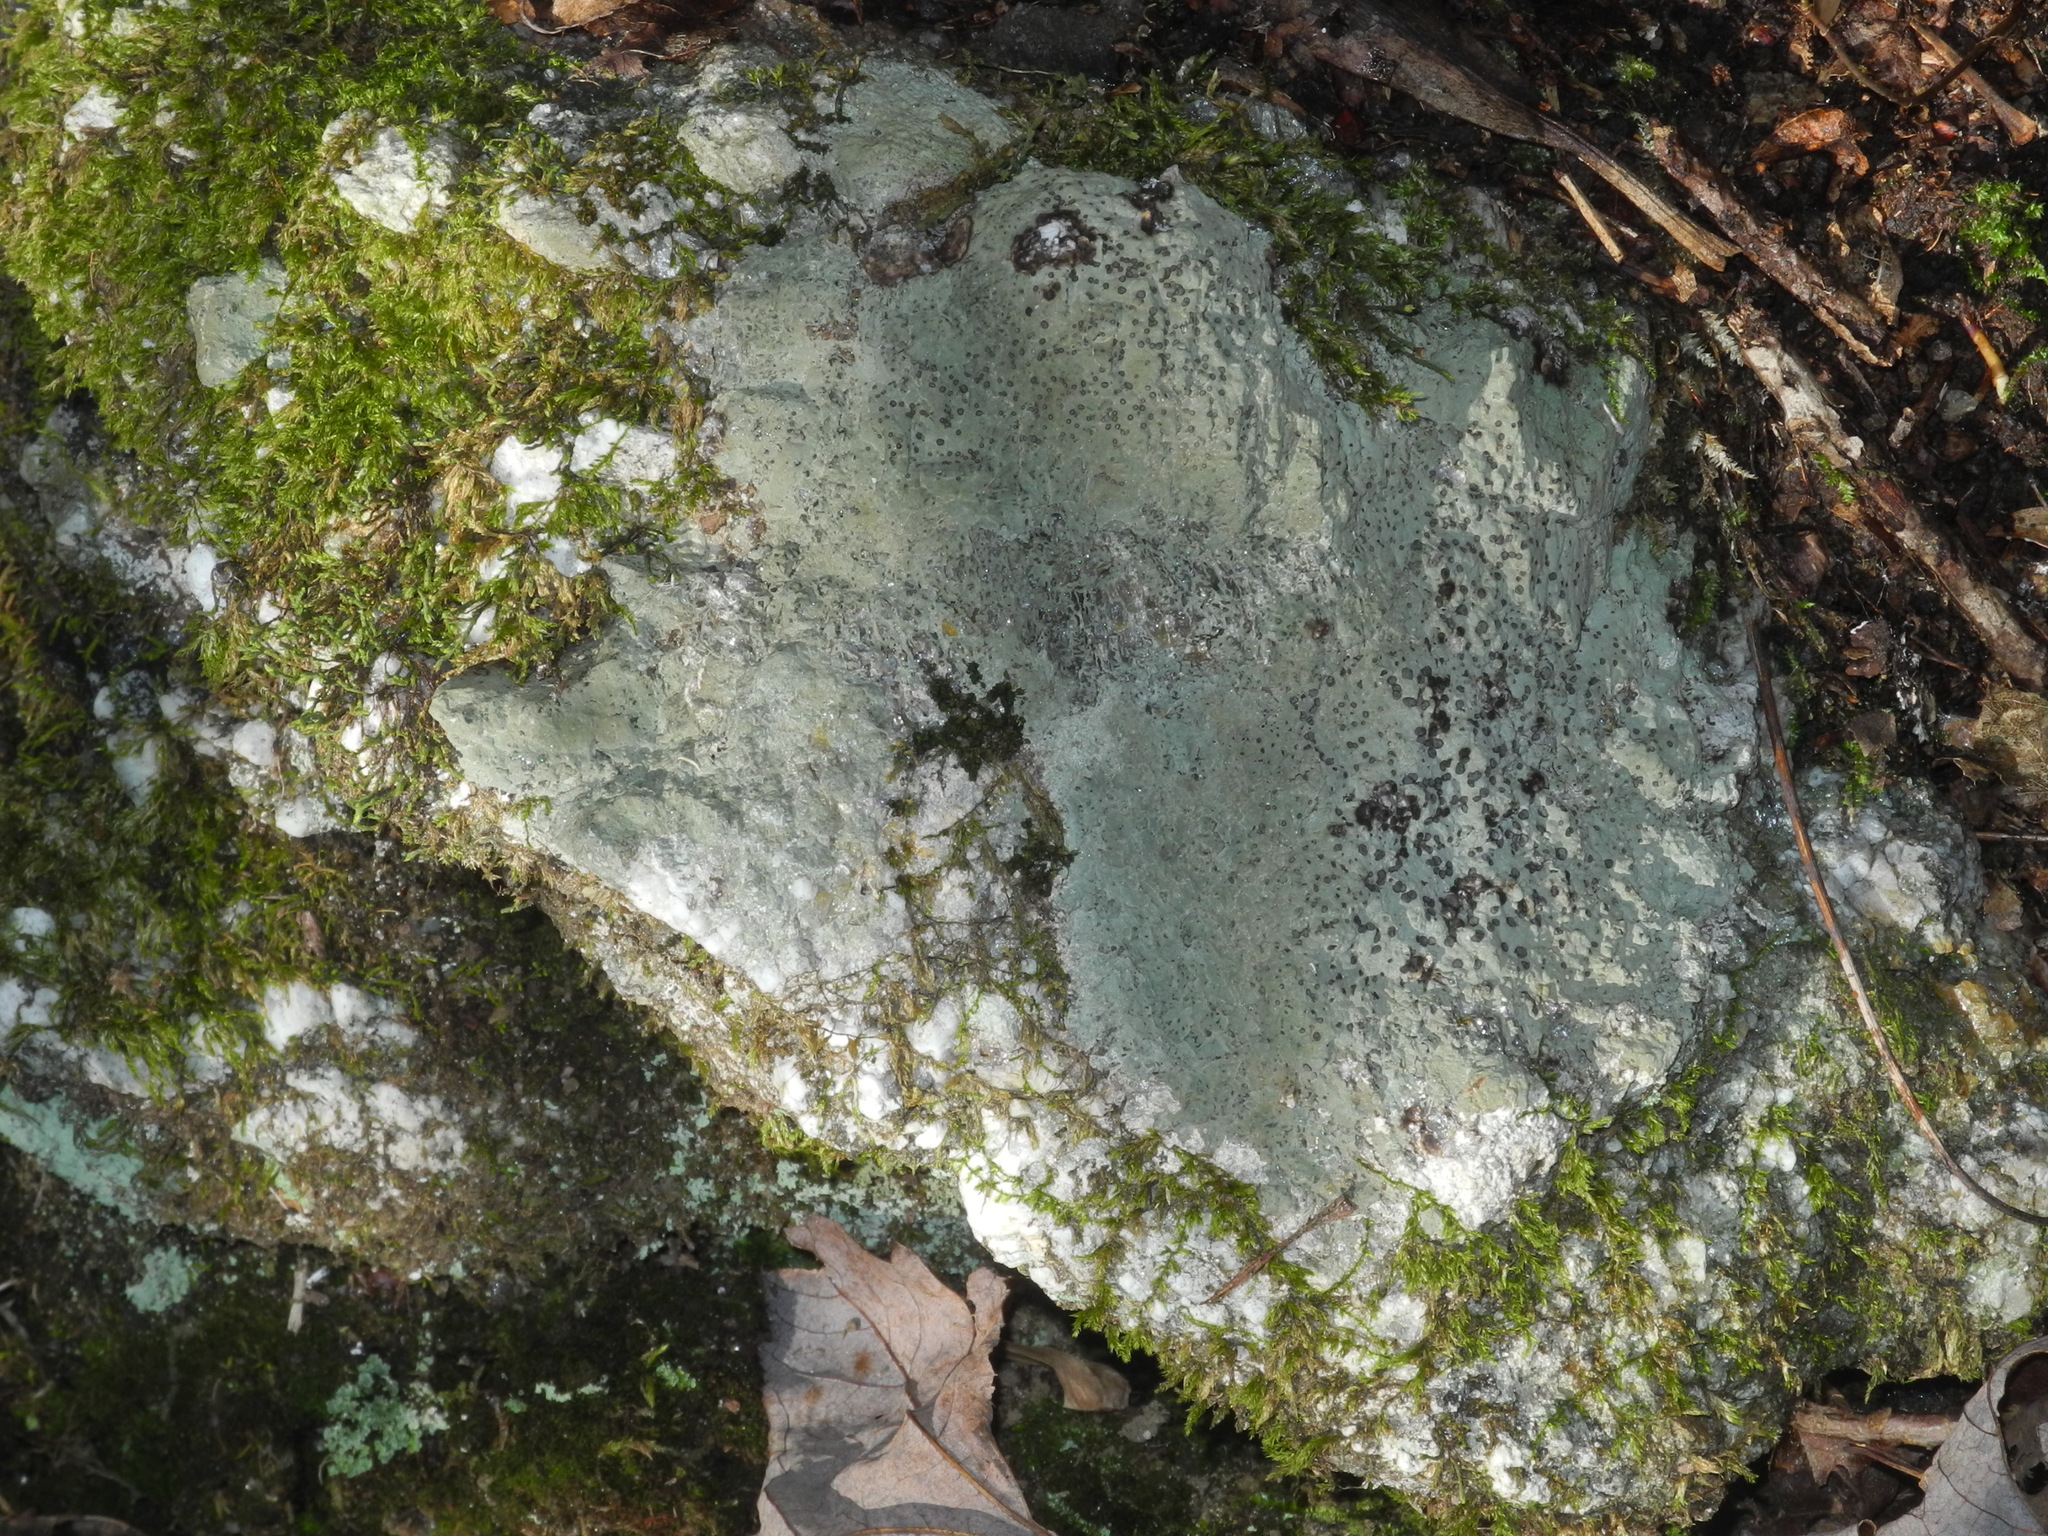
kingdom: Fungi
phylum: Ascomycota
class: Lecanoromycetes
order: Lecideales
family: Lecideaceae
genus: Porpidia
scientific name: Porpidia albocaerulescens
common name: Smokey-eyed boulder lichen
